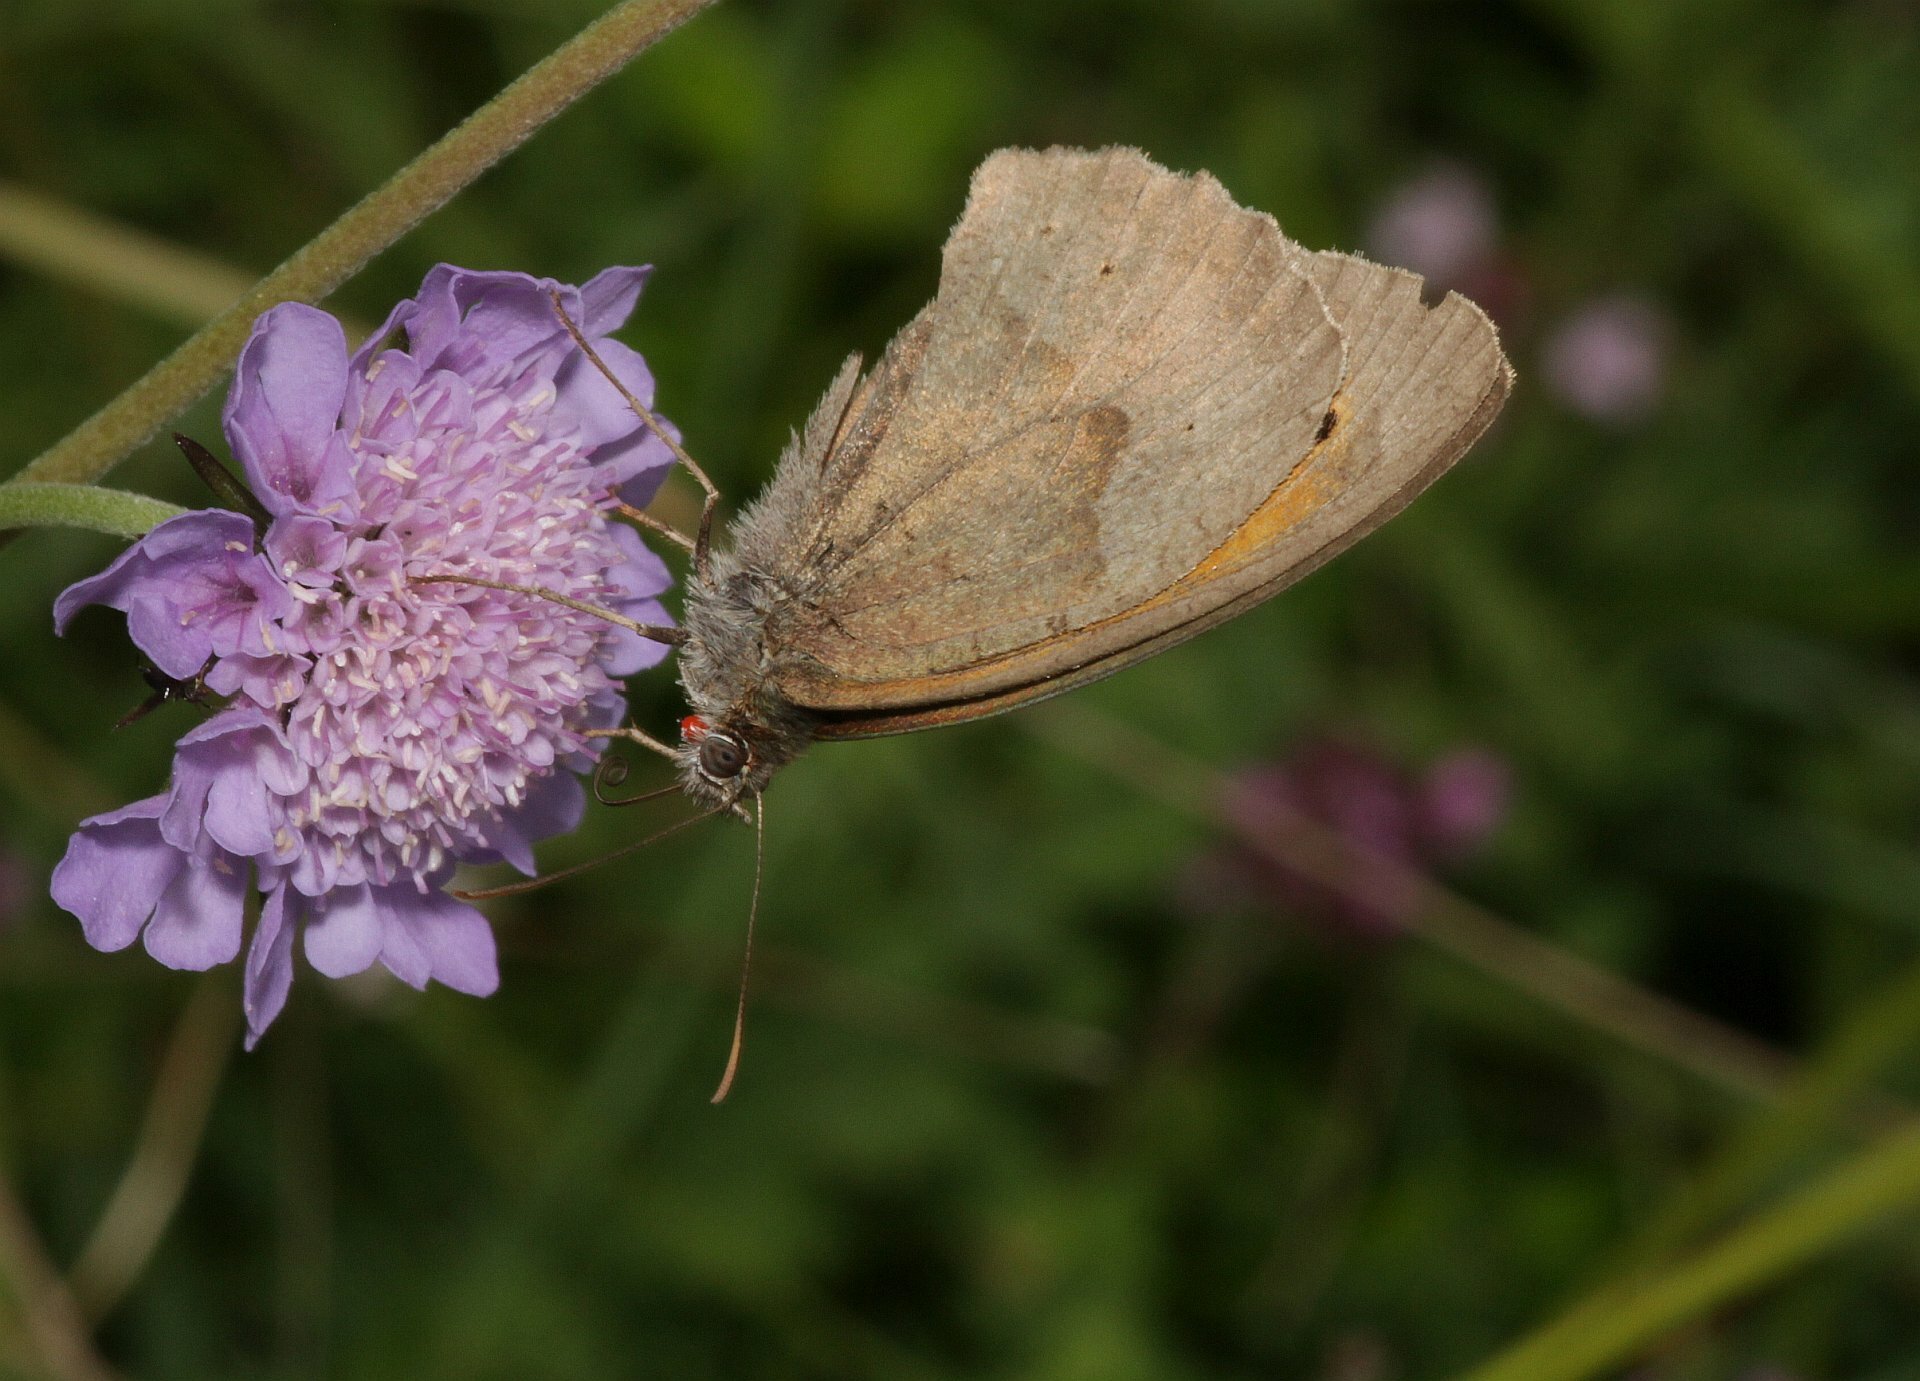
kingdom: Animalia
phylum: Arthropoda
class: Insecta
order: Lepidoptera
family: Nymphalidae
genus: Maniola
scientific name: Maniola jurtina
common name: Meadow brown
